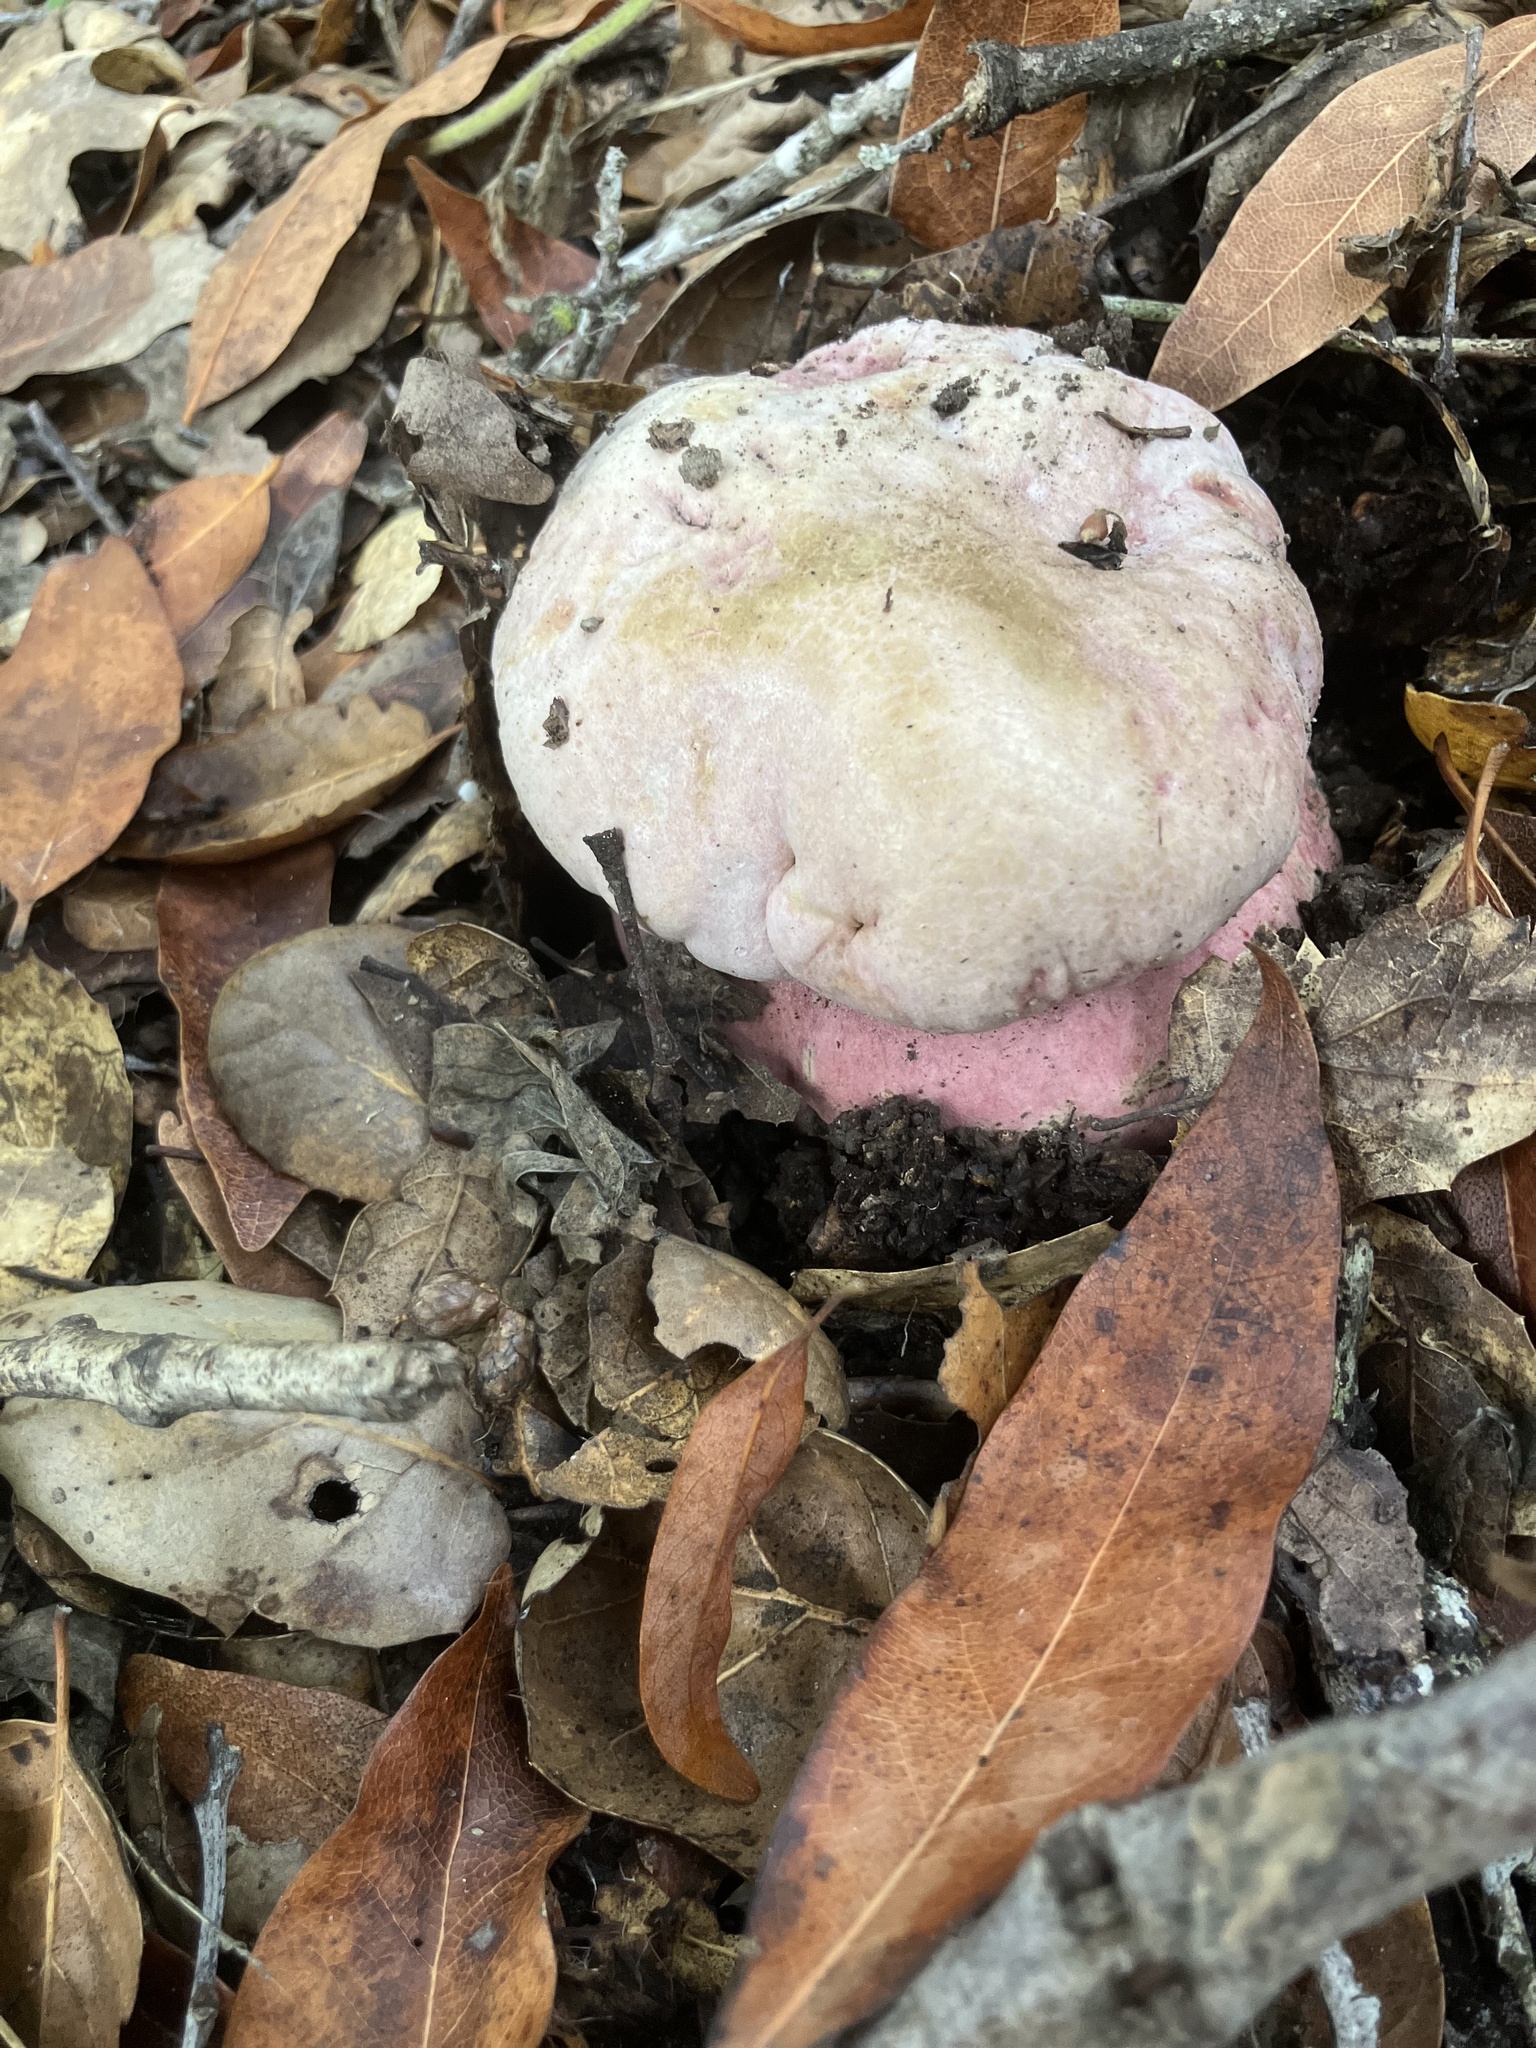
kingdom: Fungi
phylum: Basidiomycota
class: Agaricomycetes
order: Boletales
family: Boletaceae
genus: Rubroboletus
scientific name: Rubroboletus eastwoodiae
